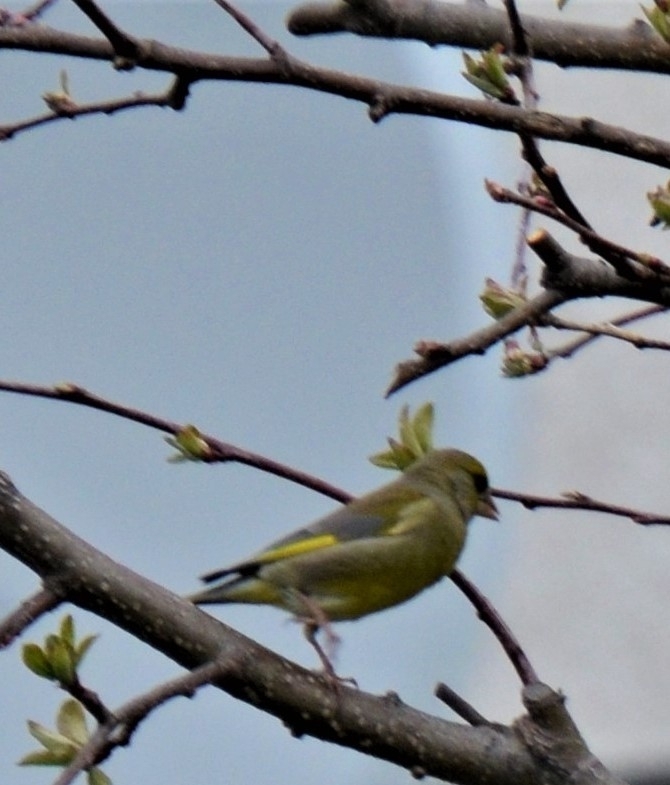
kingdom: Plantae
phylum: Tracheophyta
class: Liliopsida
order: Poales
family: Poaceae
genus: Chloris
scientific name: Chloris chloris
